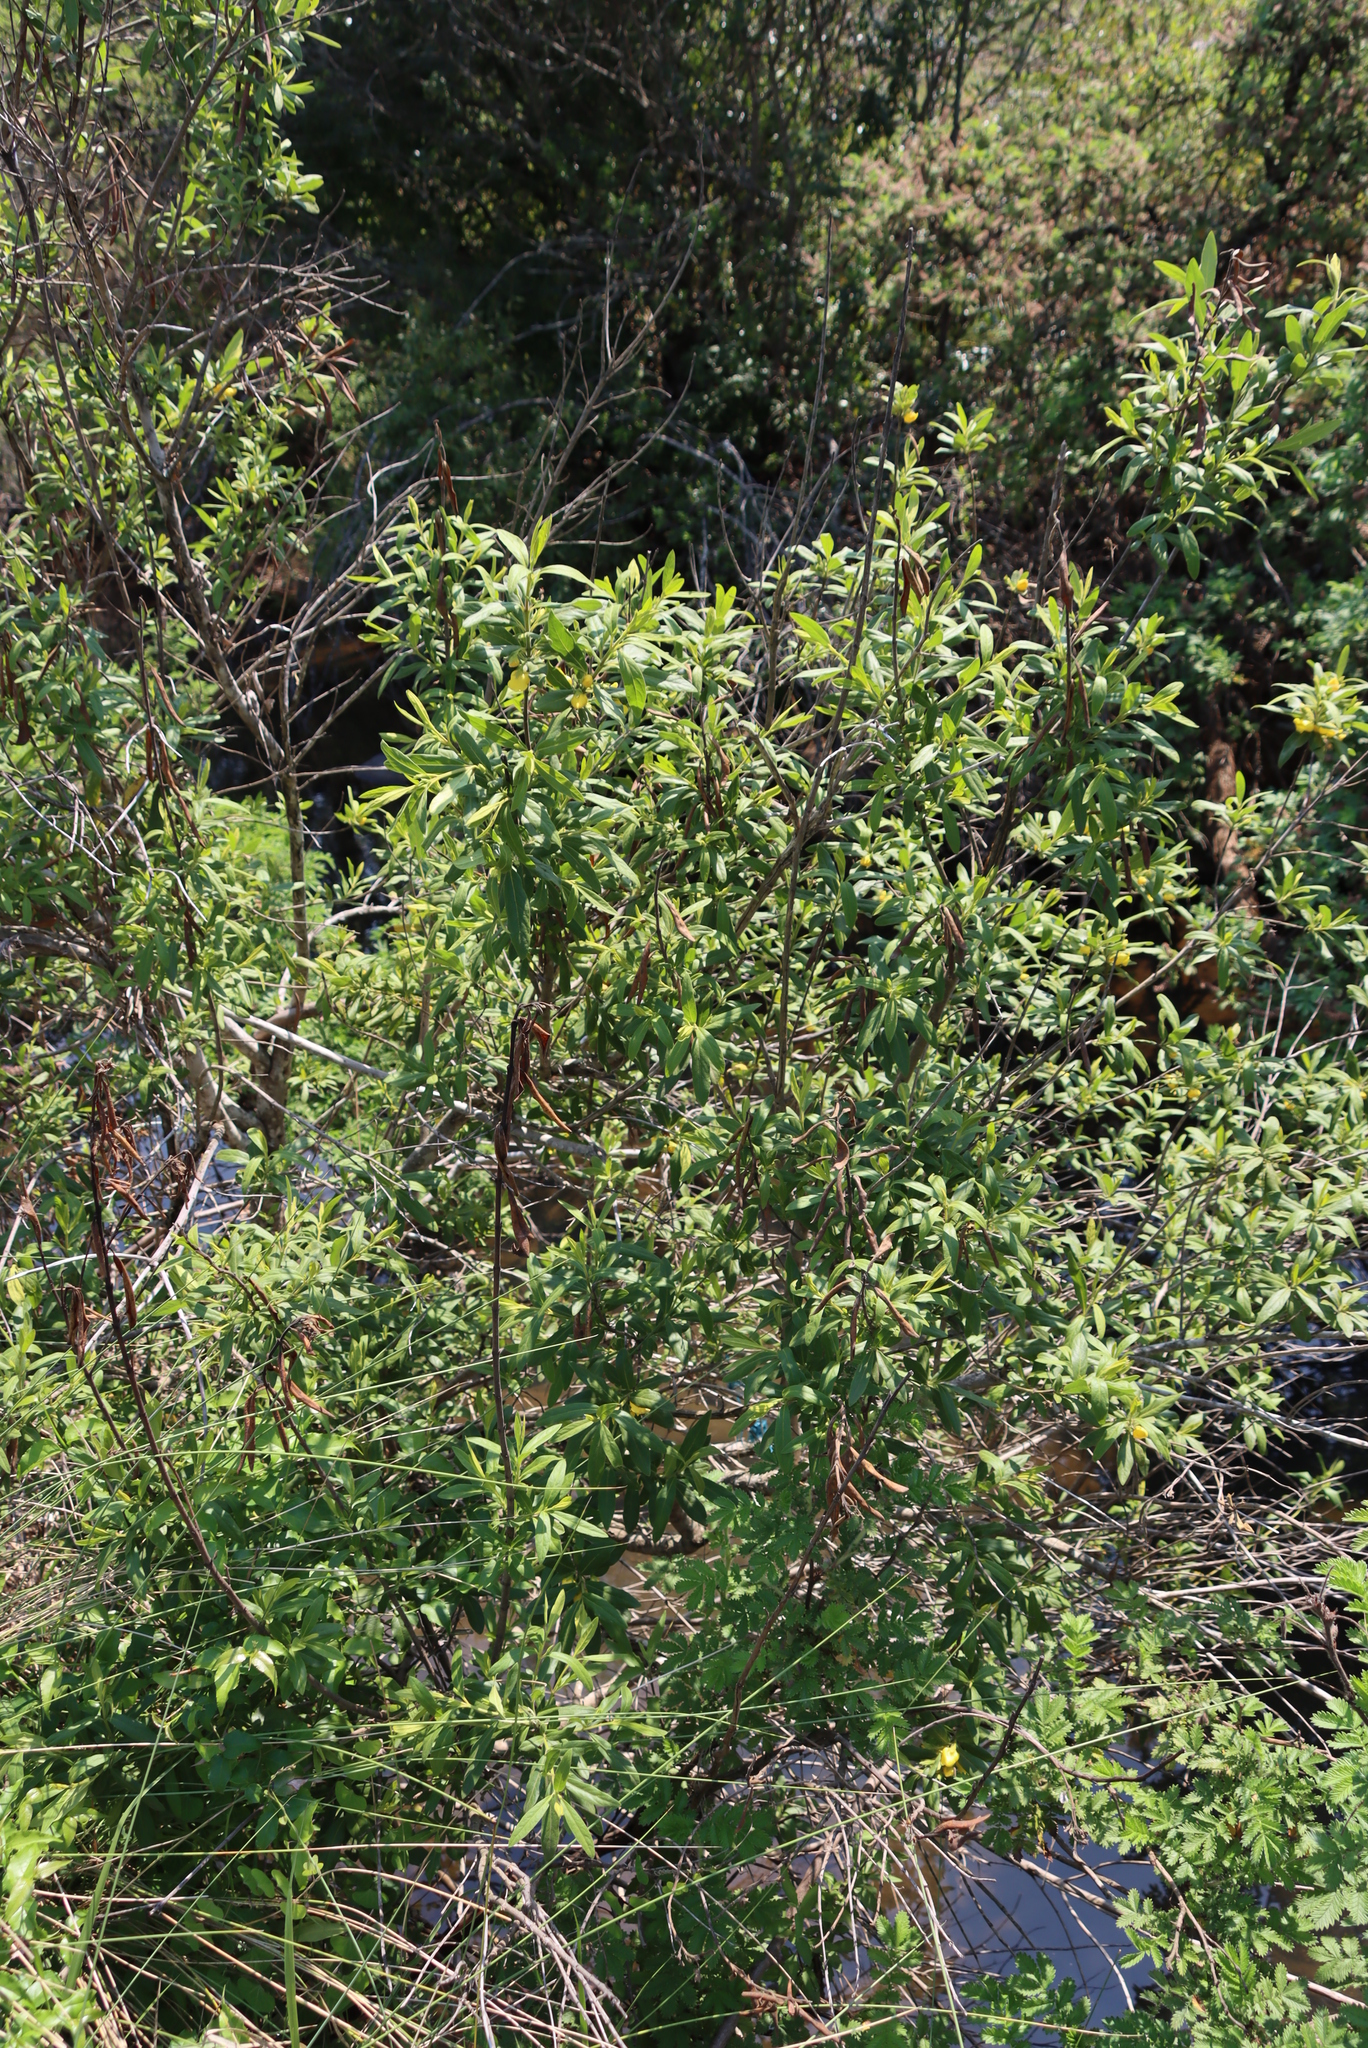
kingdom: Plantae
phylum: Tracheophyta
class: Magnoliopsida
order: Lamiales
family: Stilbaceae
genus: Bowkeria
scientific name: Bowkeria citrina
